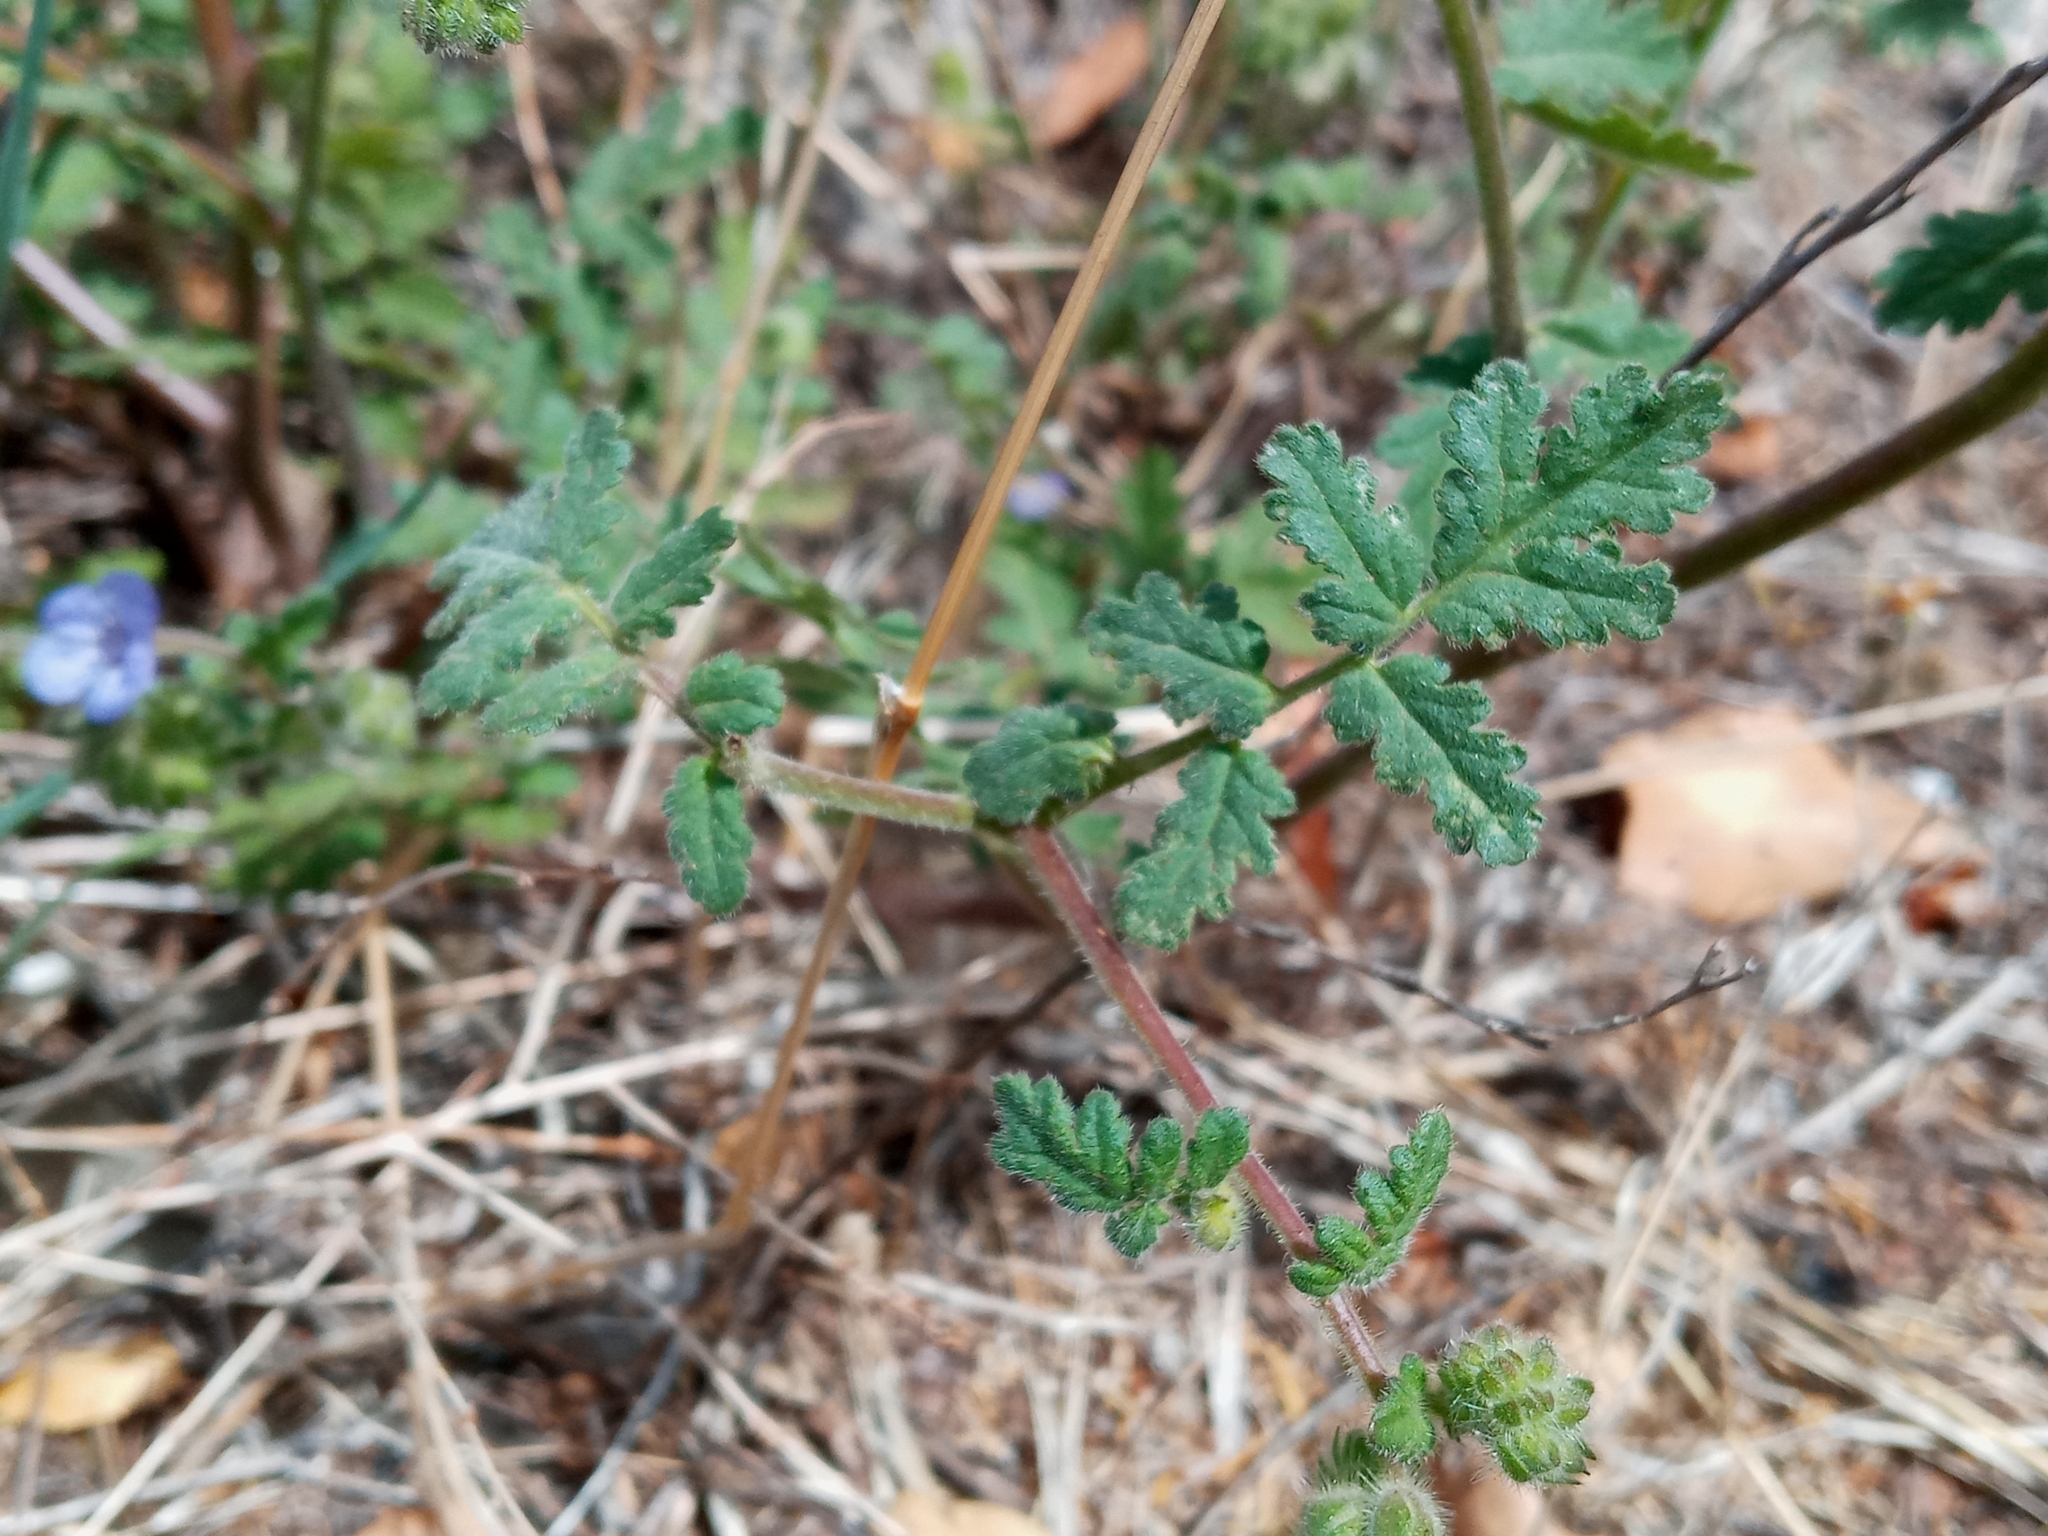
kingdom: Plantae
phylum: Tracheophyta
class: Magnoliopsida
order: Boraginales
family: Hydrophyllaceae
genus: Phacelia
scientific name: Phacelia distans
